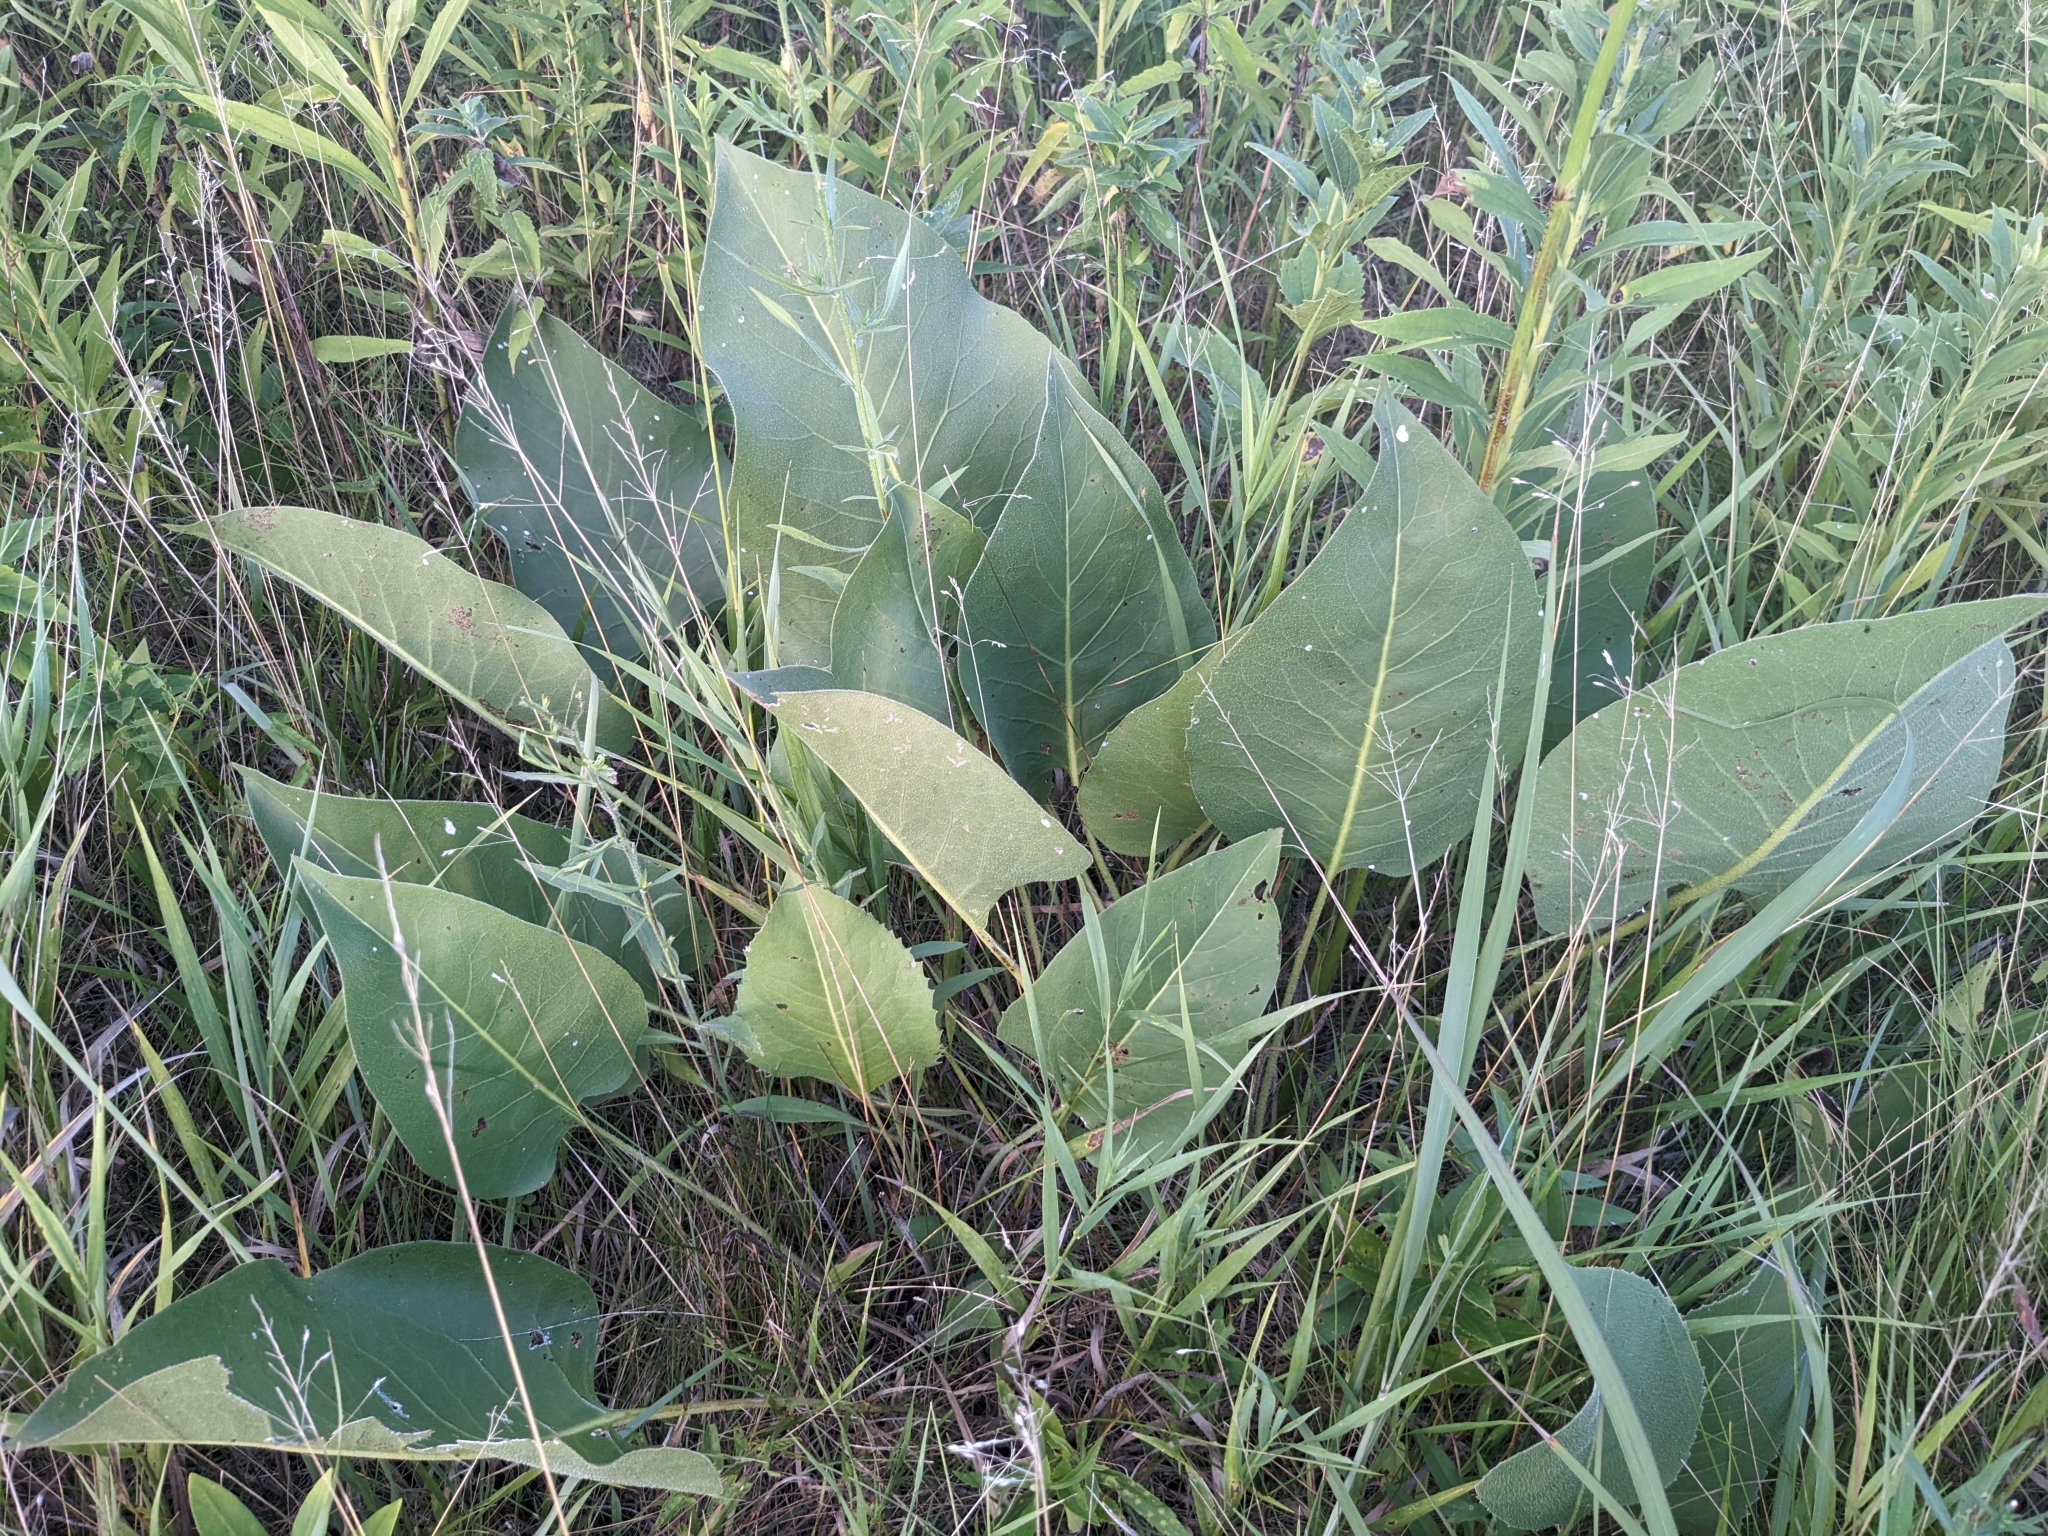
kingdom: Plantae
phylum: Tracheophyta
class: Magnoliopsida
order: Asterales
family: Asteraceae
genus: Silphium
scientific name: Silphium terebinthinaceum
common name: Basal-leaf rosinweed
